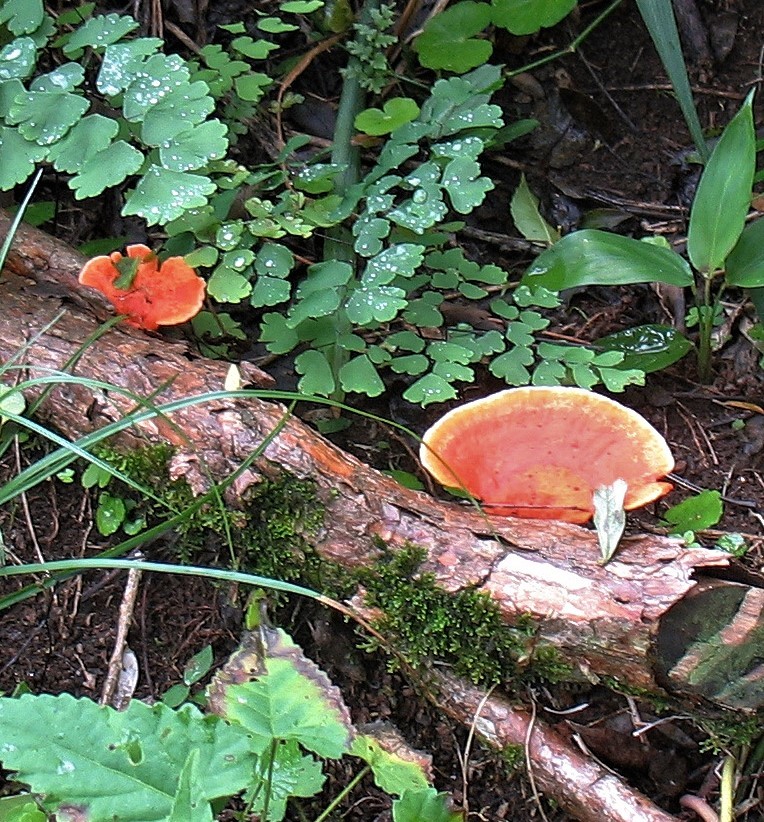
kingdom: Fungi
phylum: Basidiomycota
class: Agaricomycetes
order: Polyporales
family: Polyporaceae
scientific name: Polyporaceae
